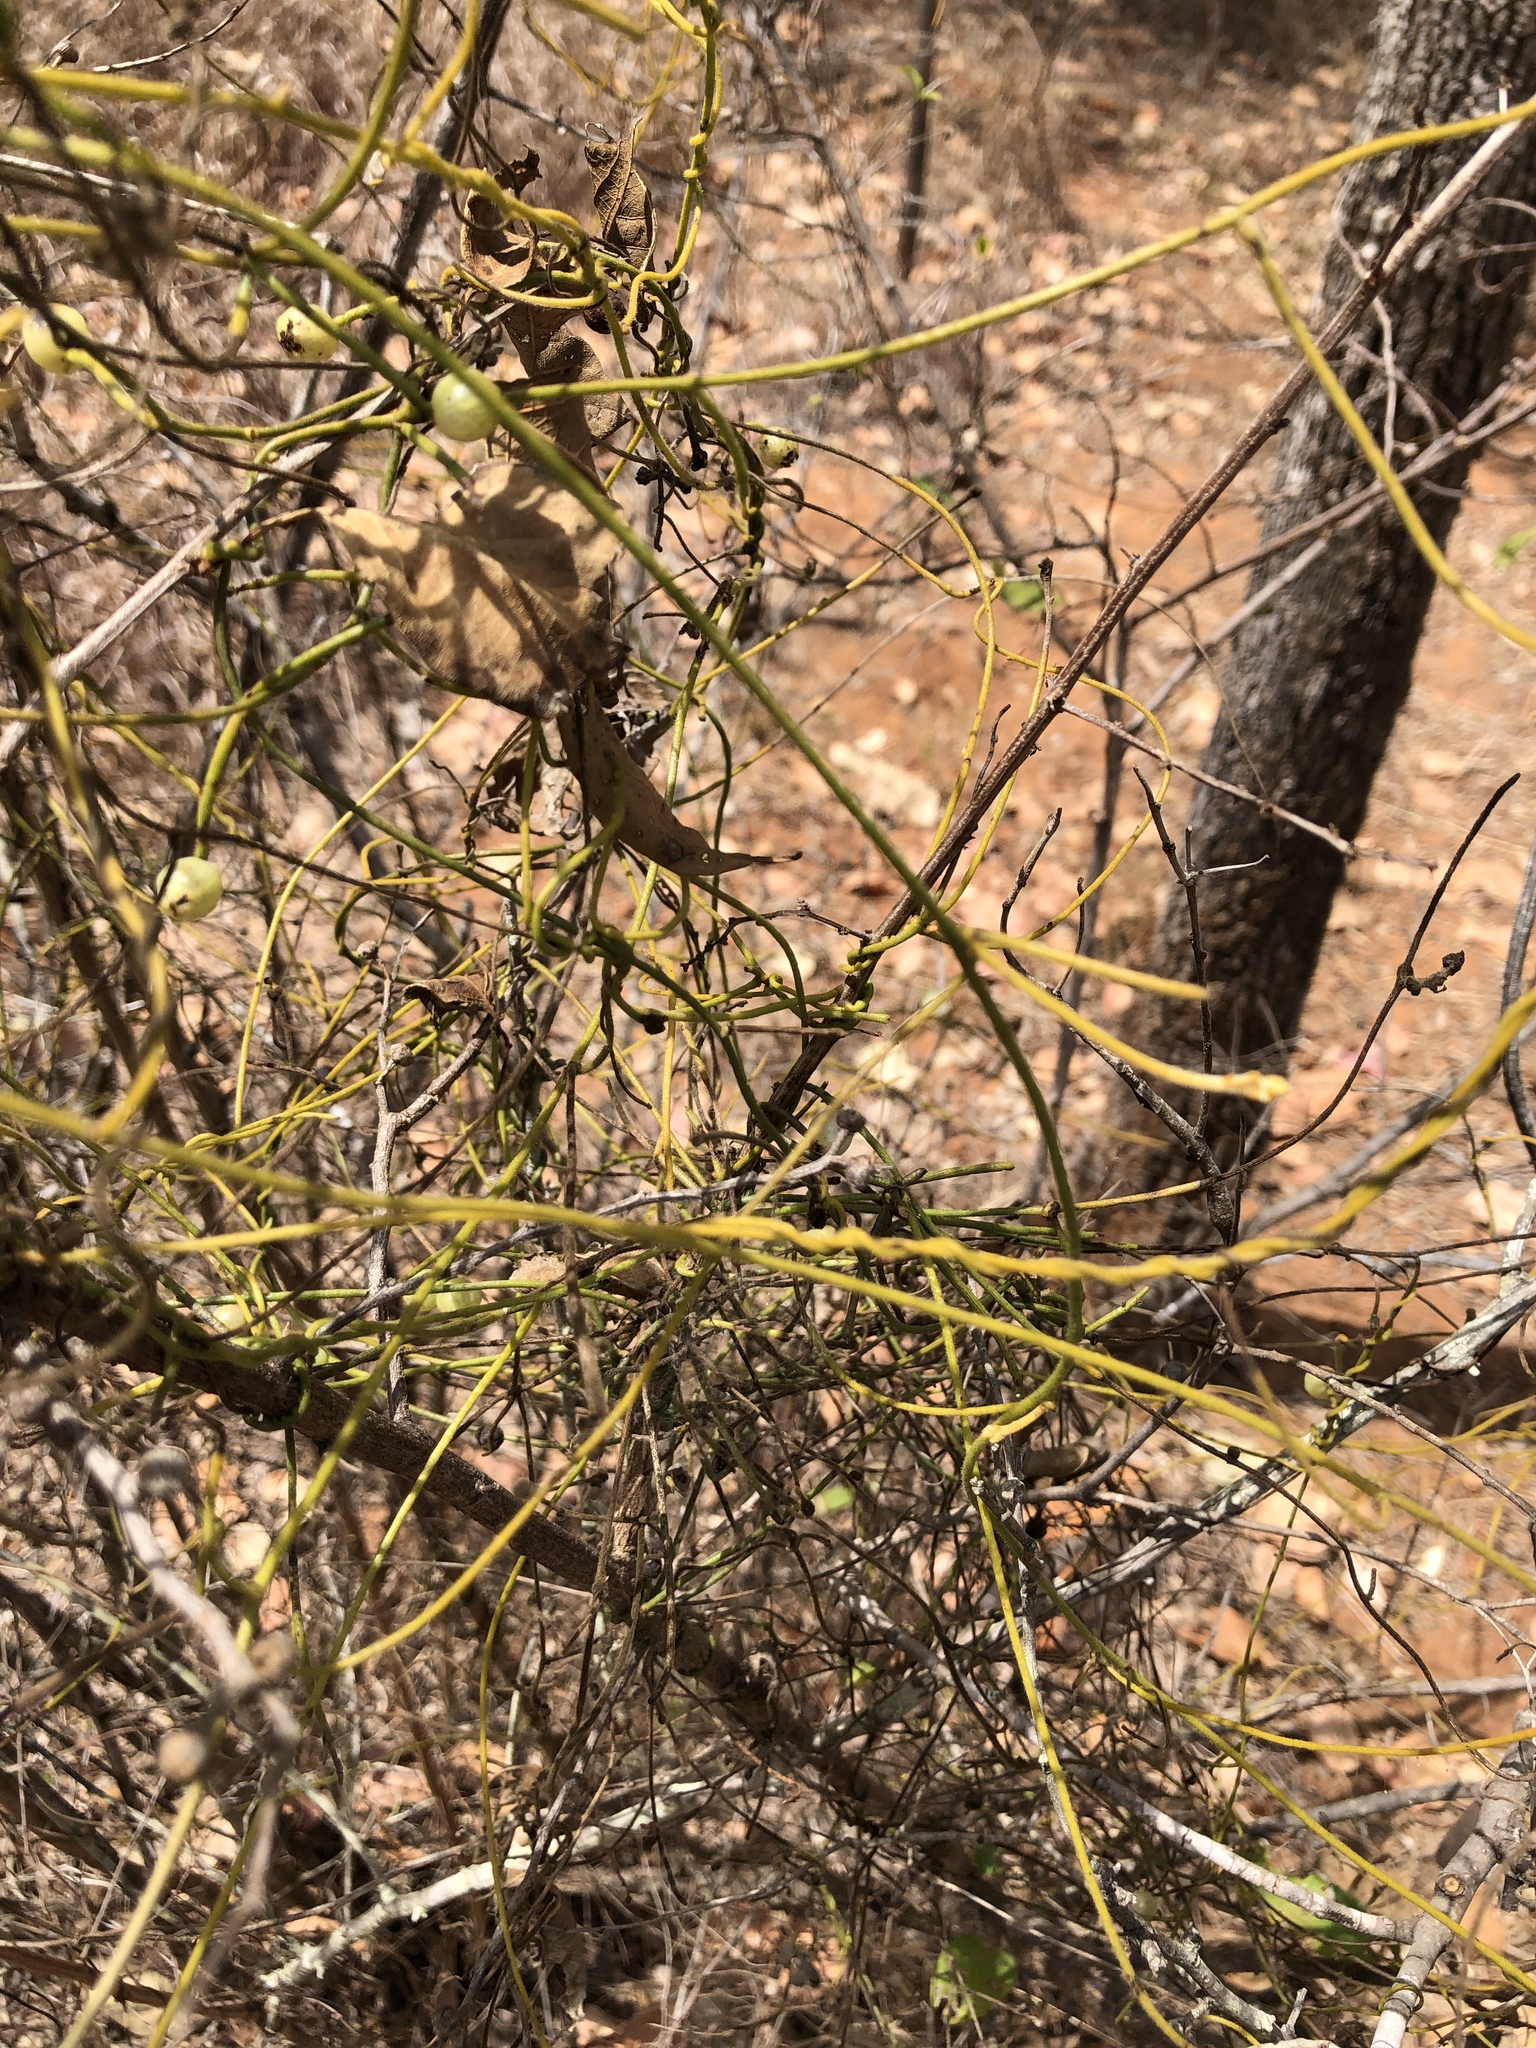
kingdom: Plantae
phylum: Tracheophyta
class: Magnoliopsida
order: Laurales
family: Lauraceae
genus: Cassytha
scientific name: Cassytha filiformis
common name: Dodder-laurel
